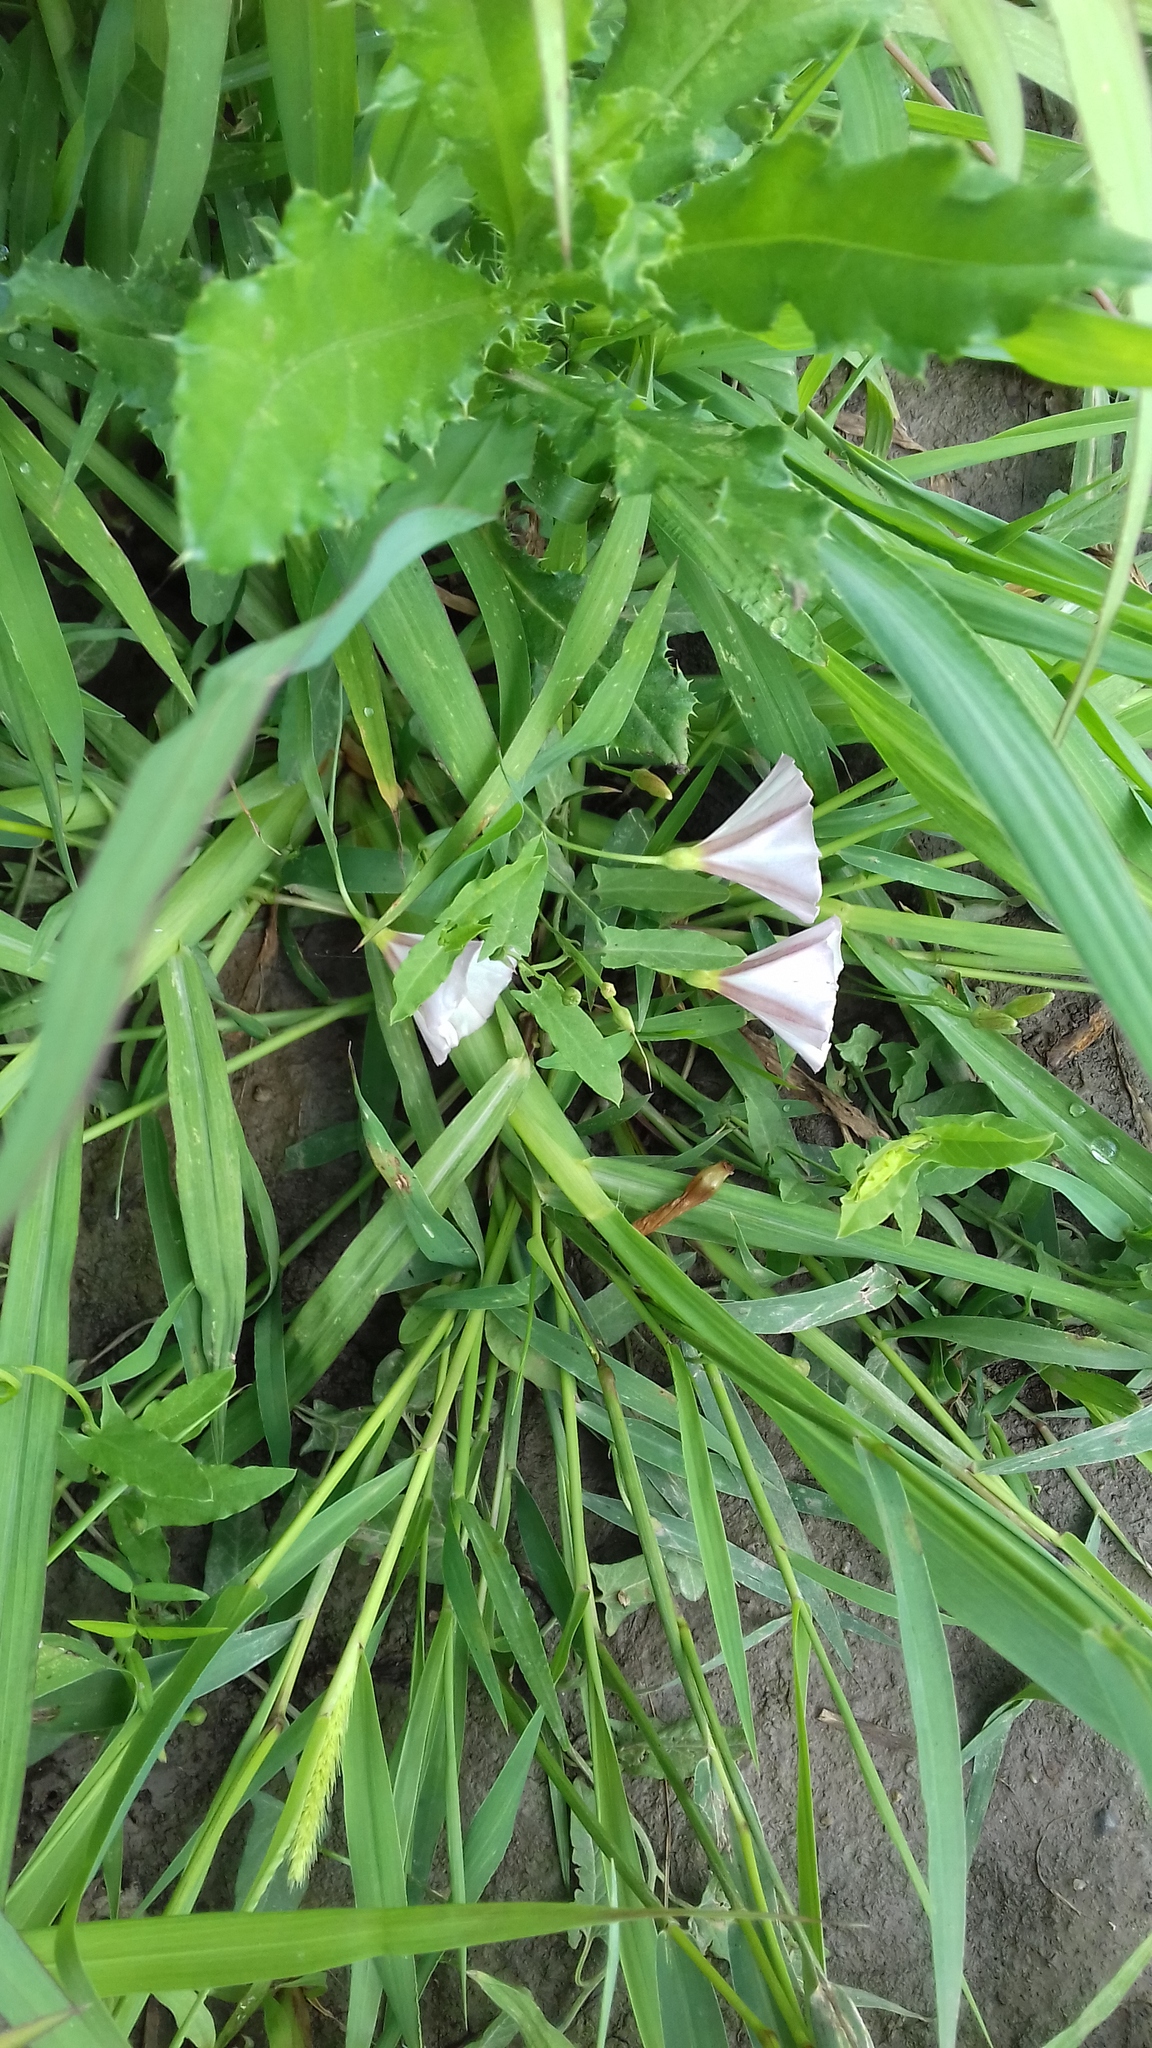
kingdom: Plantae
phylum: Tracheophyta
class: Magnoliopsida
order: Solanales
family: Convolvulaceae
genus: Convolvulus
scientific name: Convolvulus arvensis
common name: Field bindweed
